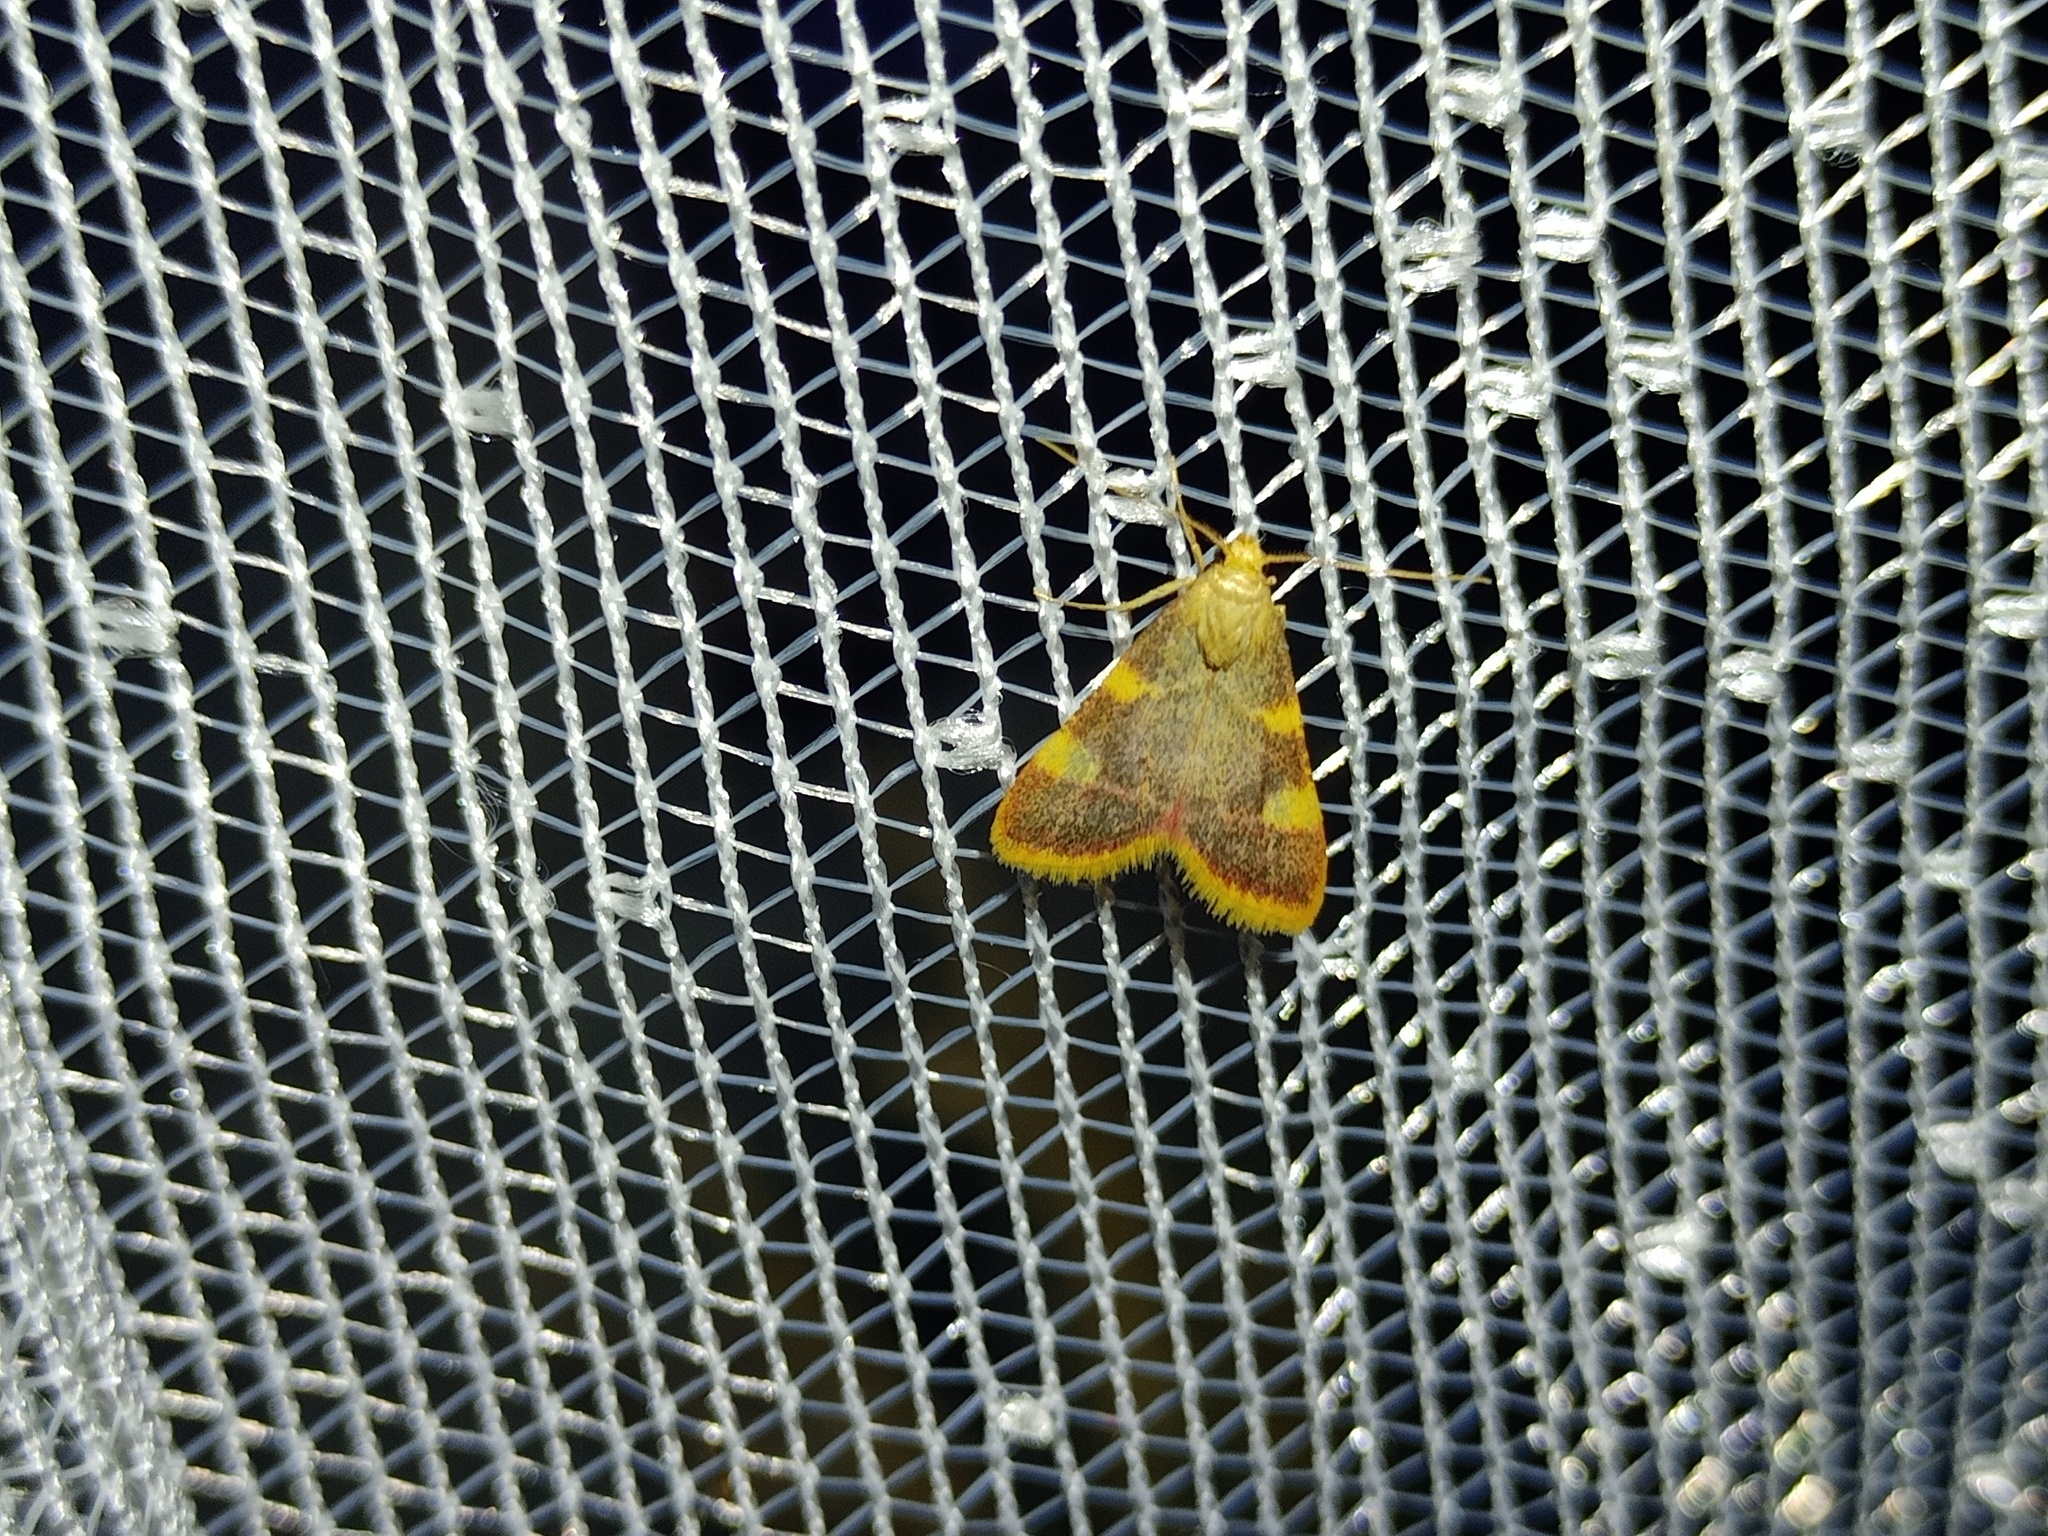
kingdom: Animalia
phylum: Arthropoda
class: Insecta
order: Lepidoptera
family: Pyralidae
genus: Hypsopygia
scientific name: Hypsopygia costalis
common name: Gold triangle
